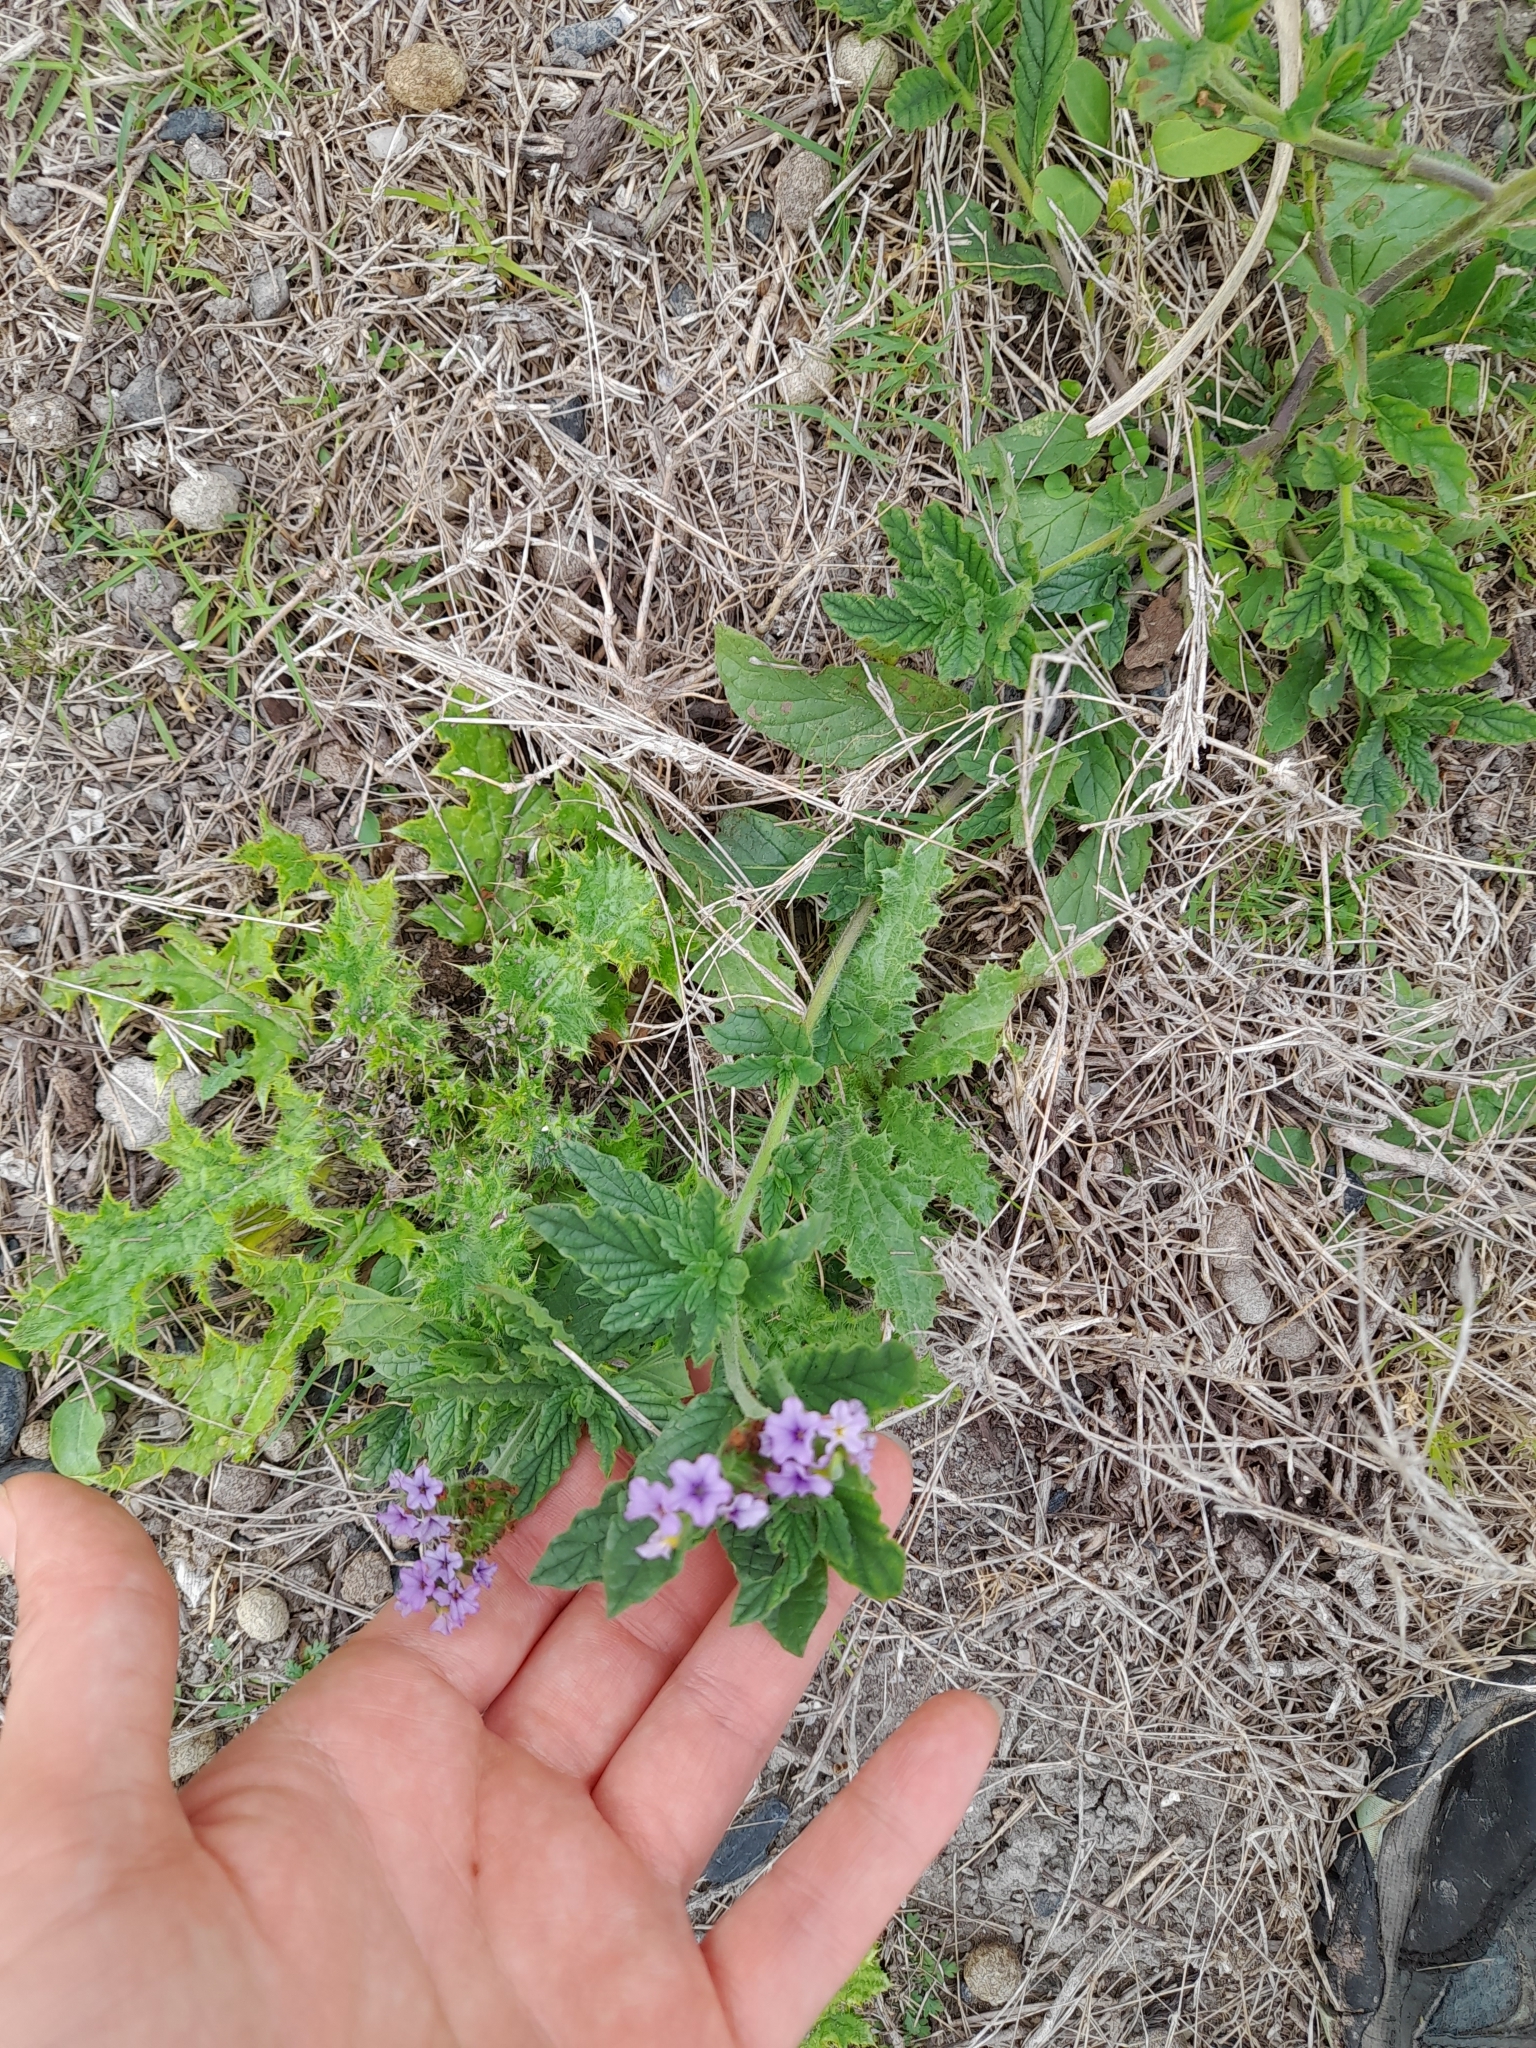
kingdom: Plantae
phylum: Tracheophyta
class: Magnoliopsida
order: Boraginales
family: Heliotropiaceae
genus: Heliotropium
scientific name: Heliotropium amplexicaule
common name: Clasping heliotrope
